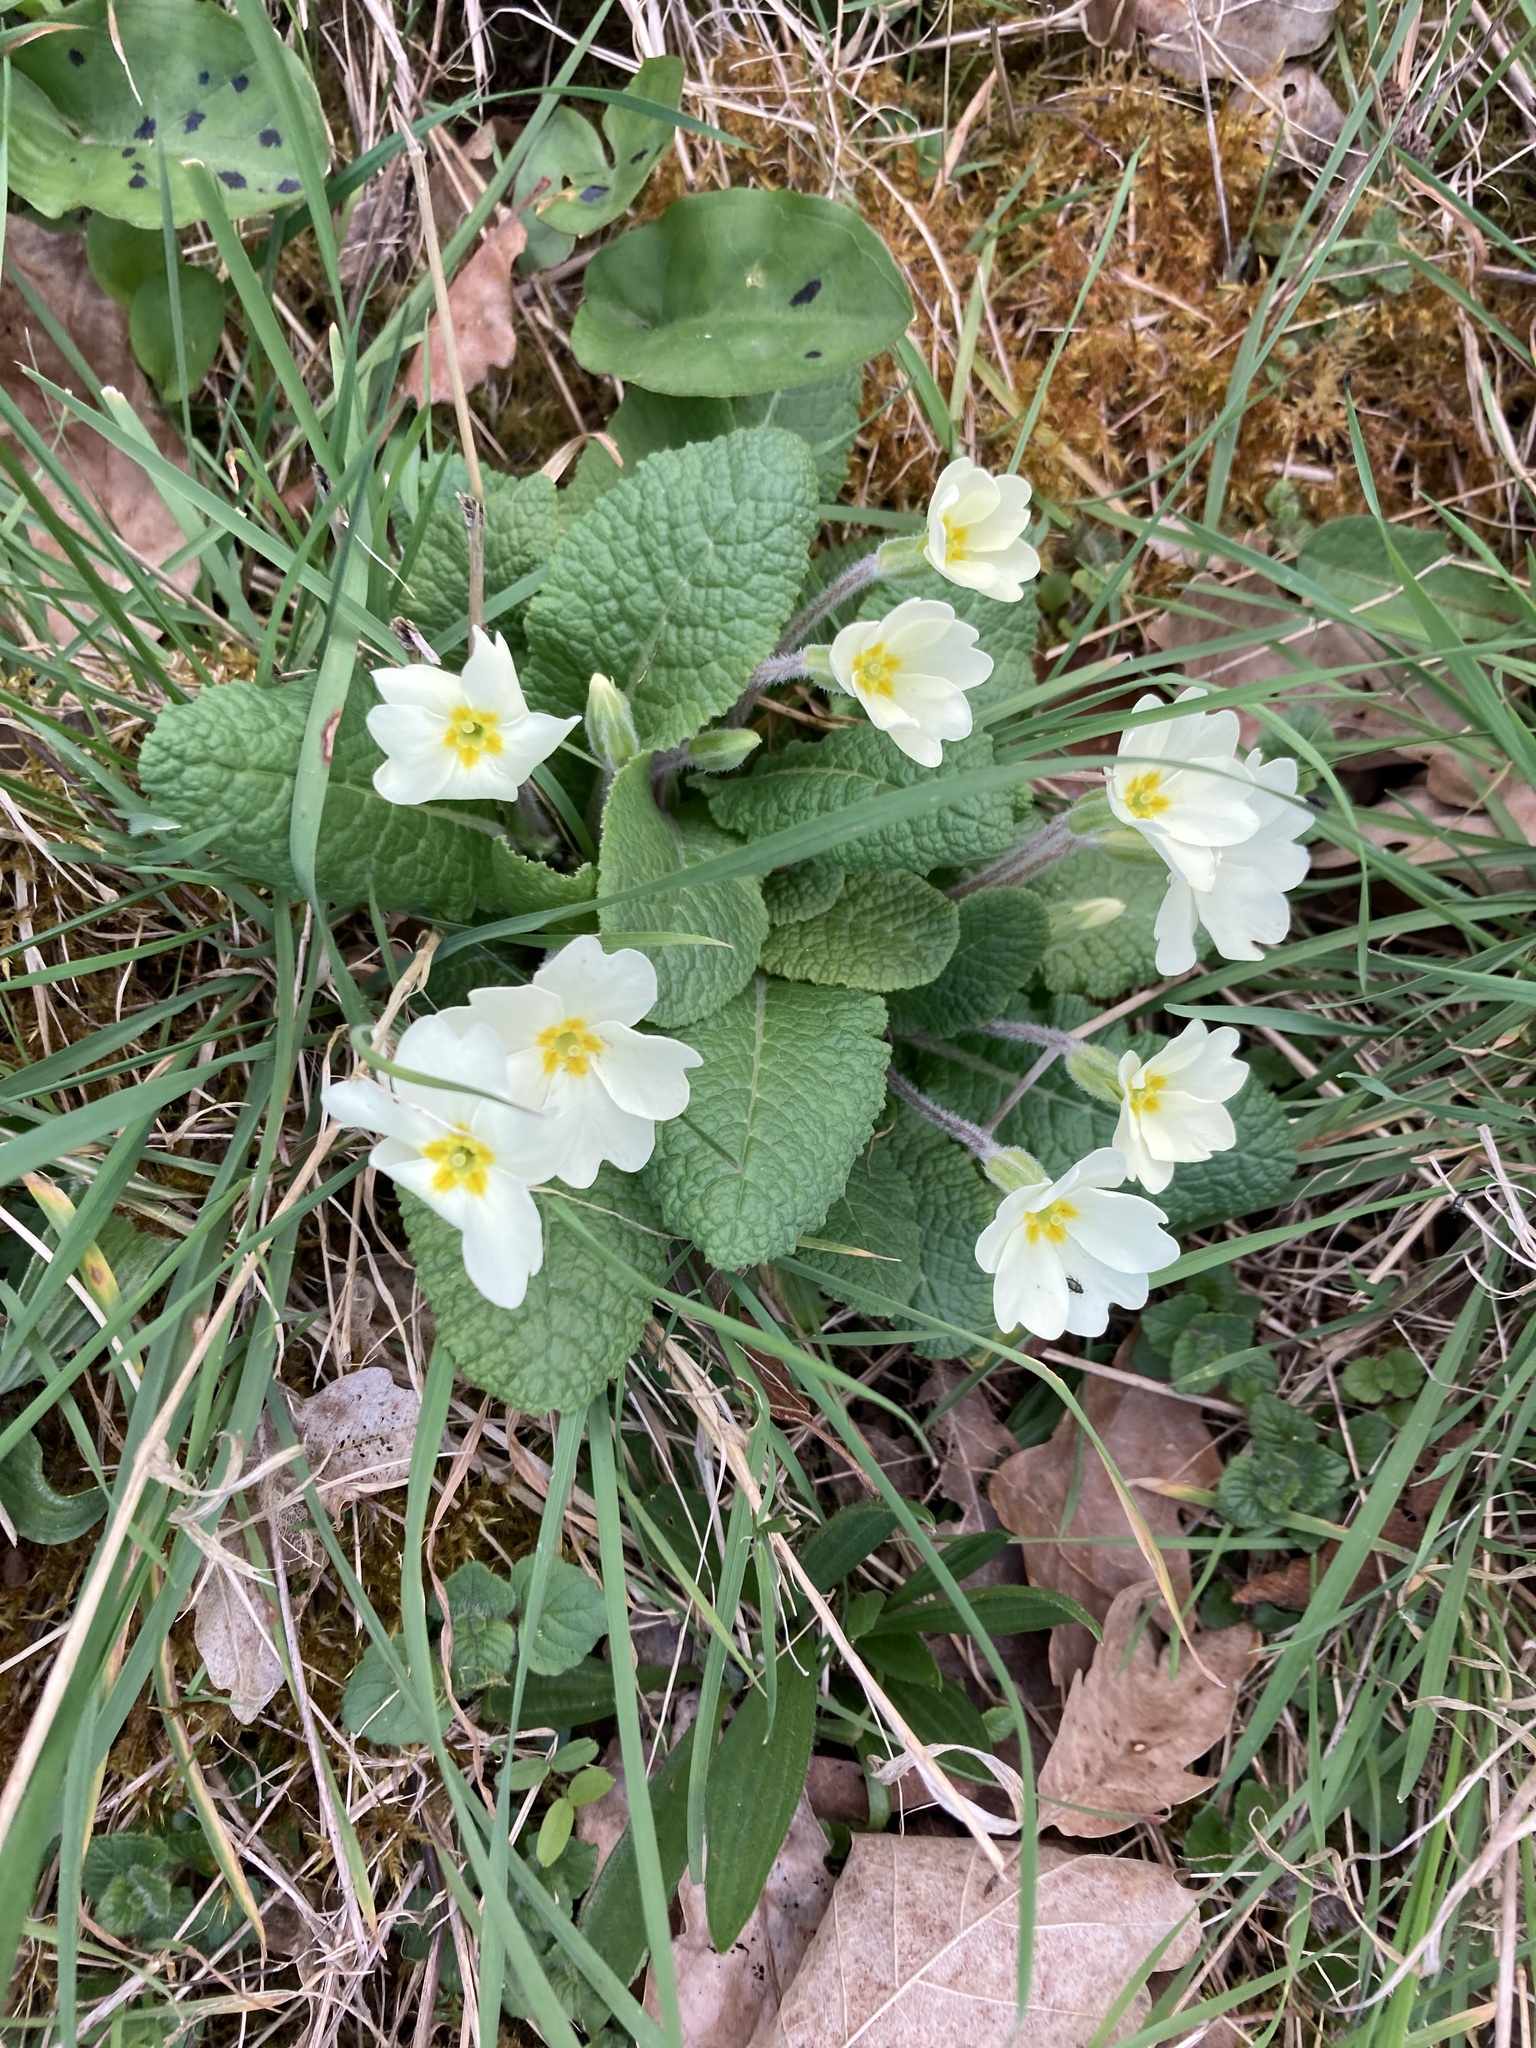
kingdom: Plantae
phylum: Tracheophyta
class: Magnoliopsida
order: Ericales
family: Primulaceae
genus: Primula
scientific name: Primula vulgaris
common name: Primrose
